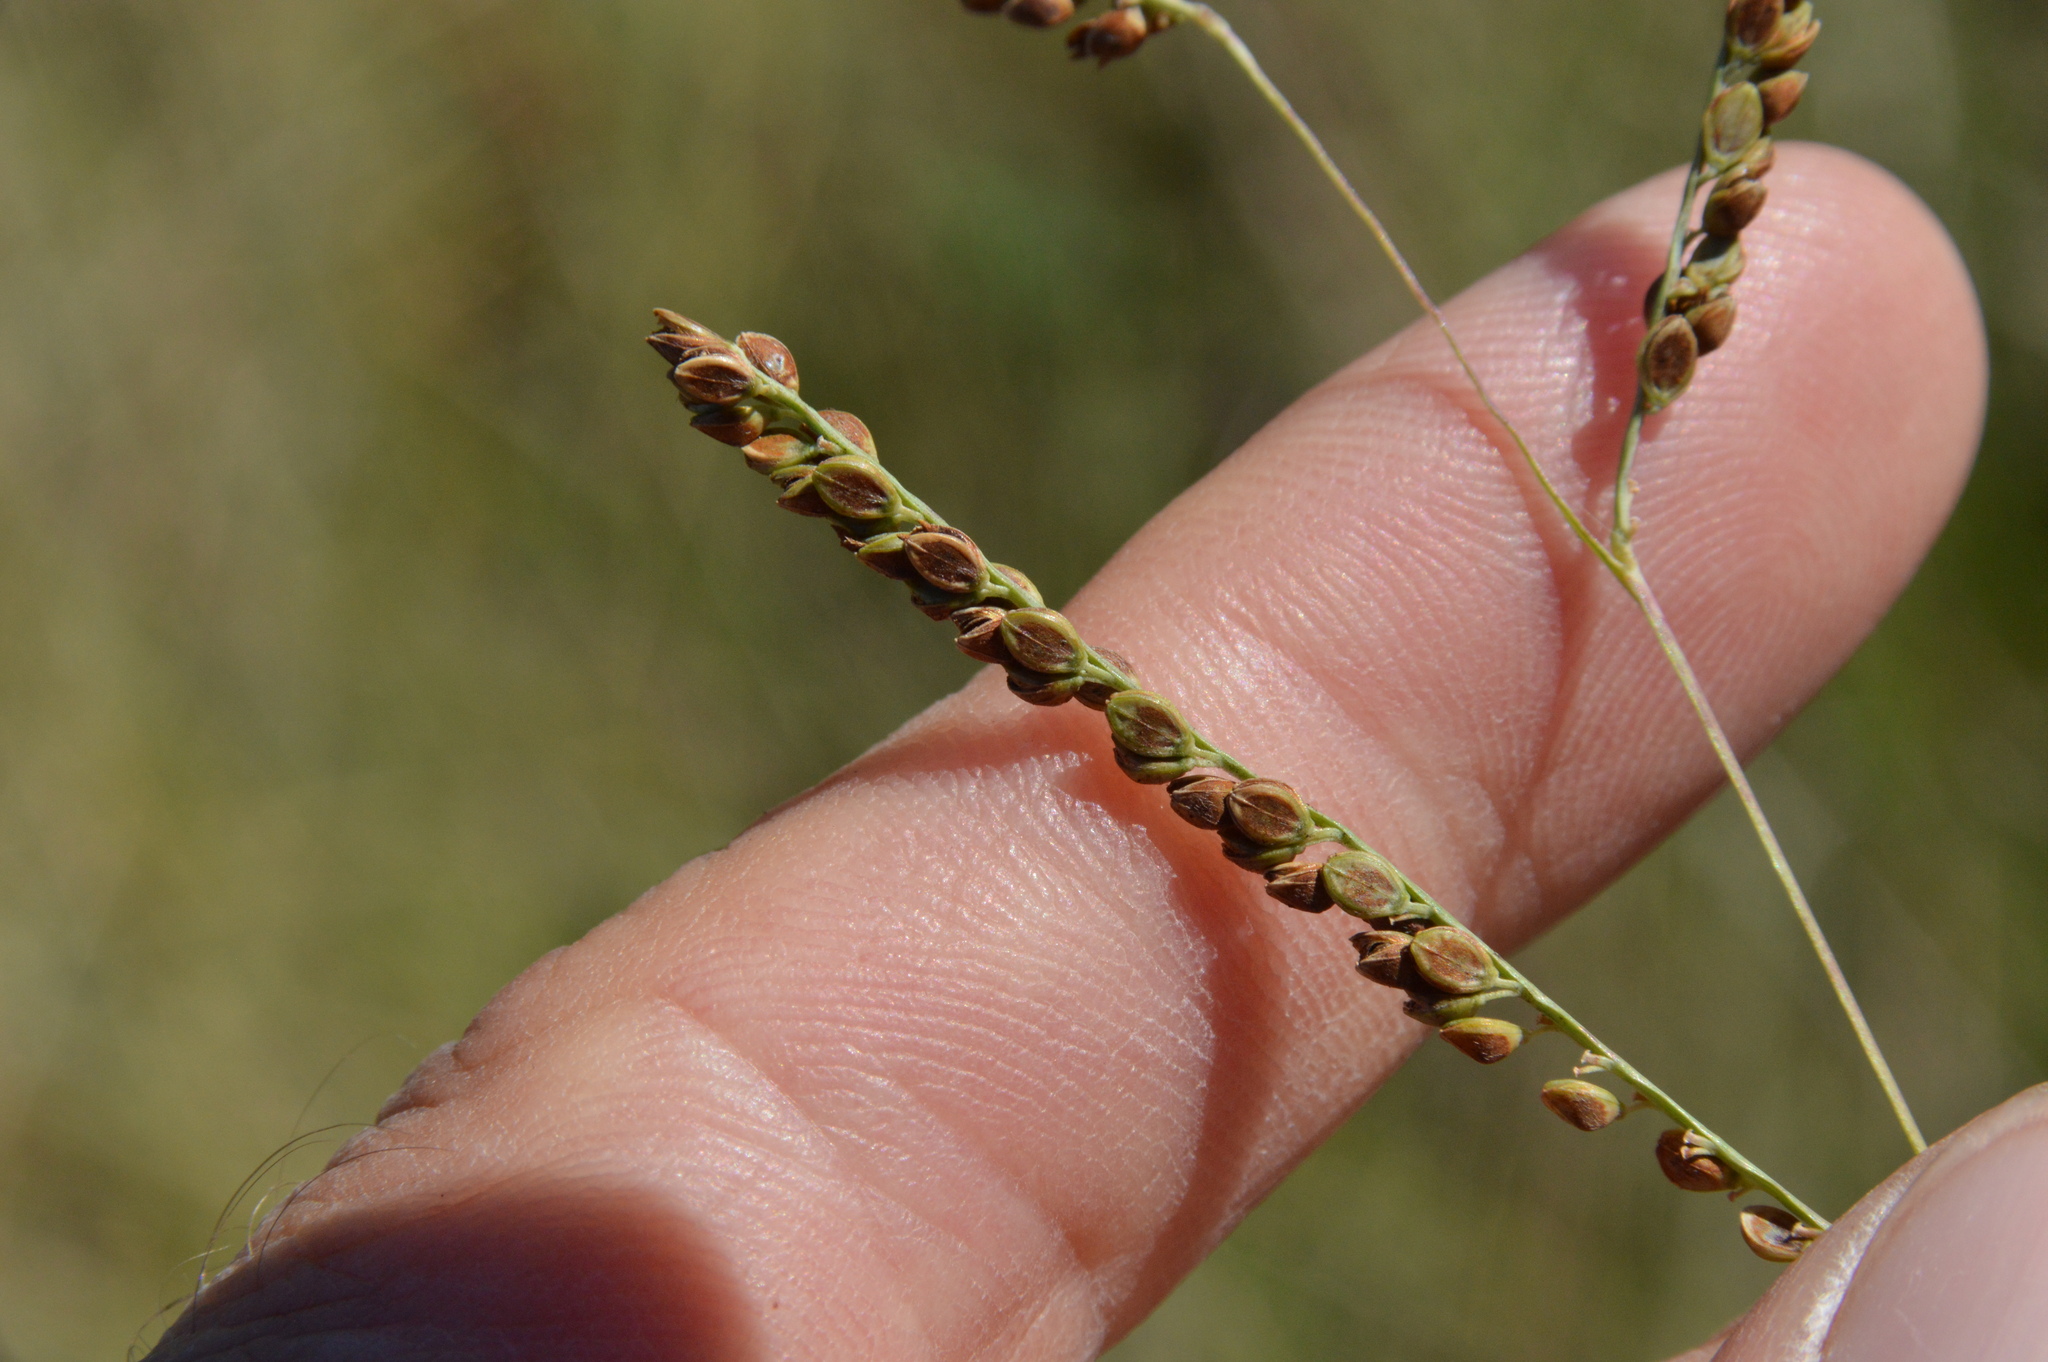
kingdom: Plantae
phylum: Tracheophyta
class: Liliopsida
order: Poales
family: Poaceae
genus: Paspalum
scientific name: Paspalum plicatulum
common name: Top paspalum
